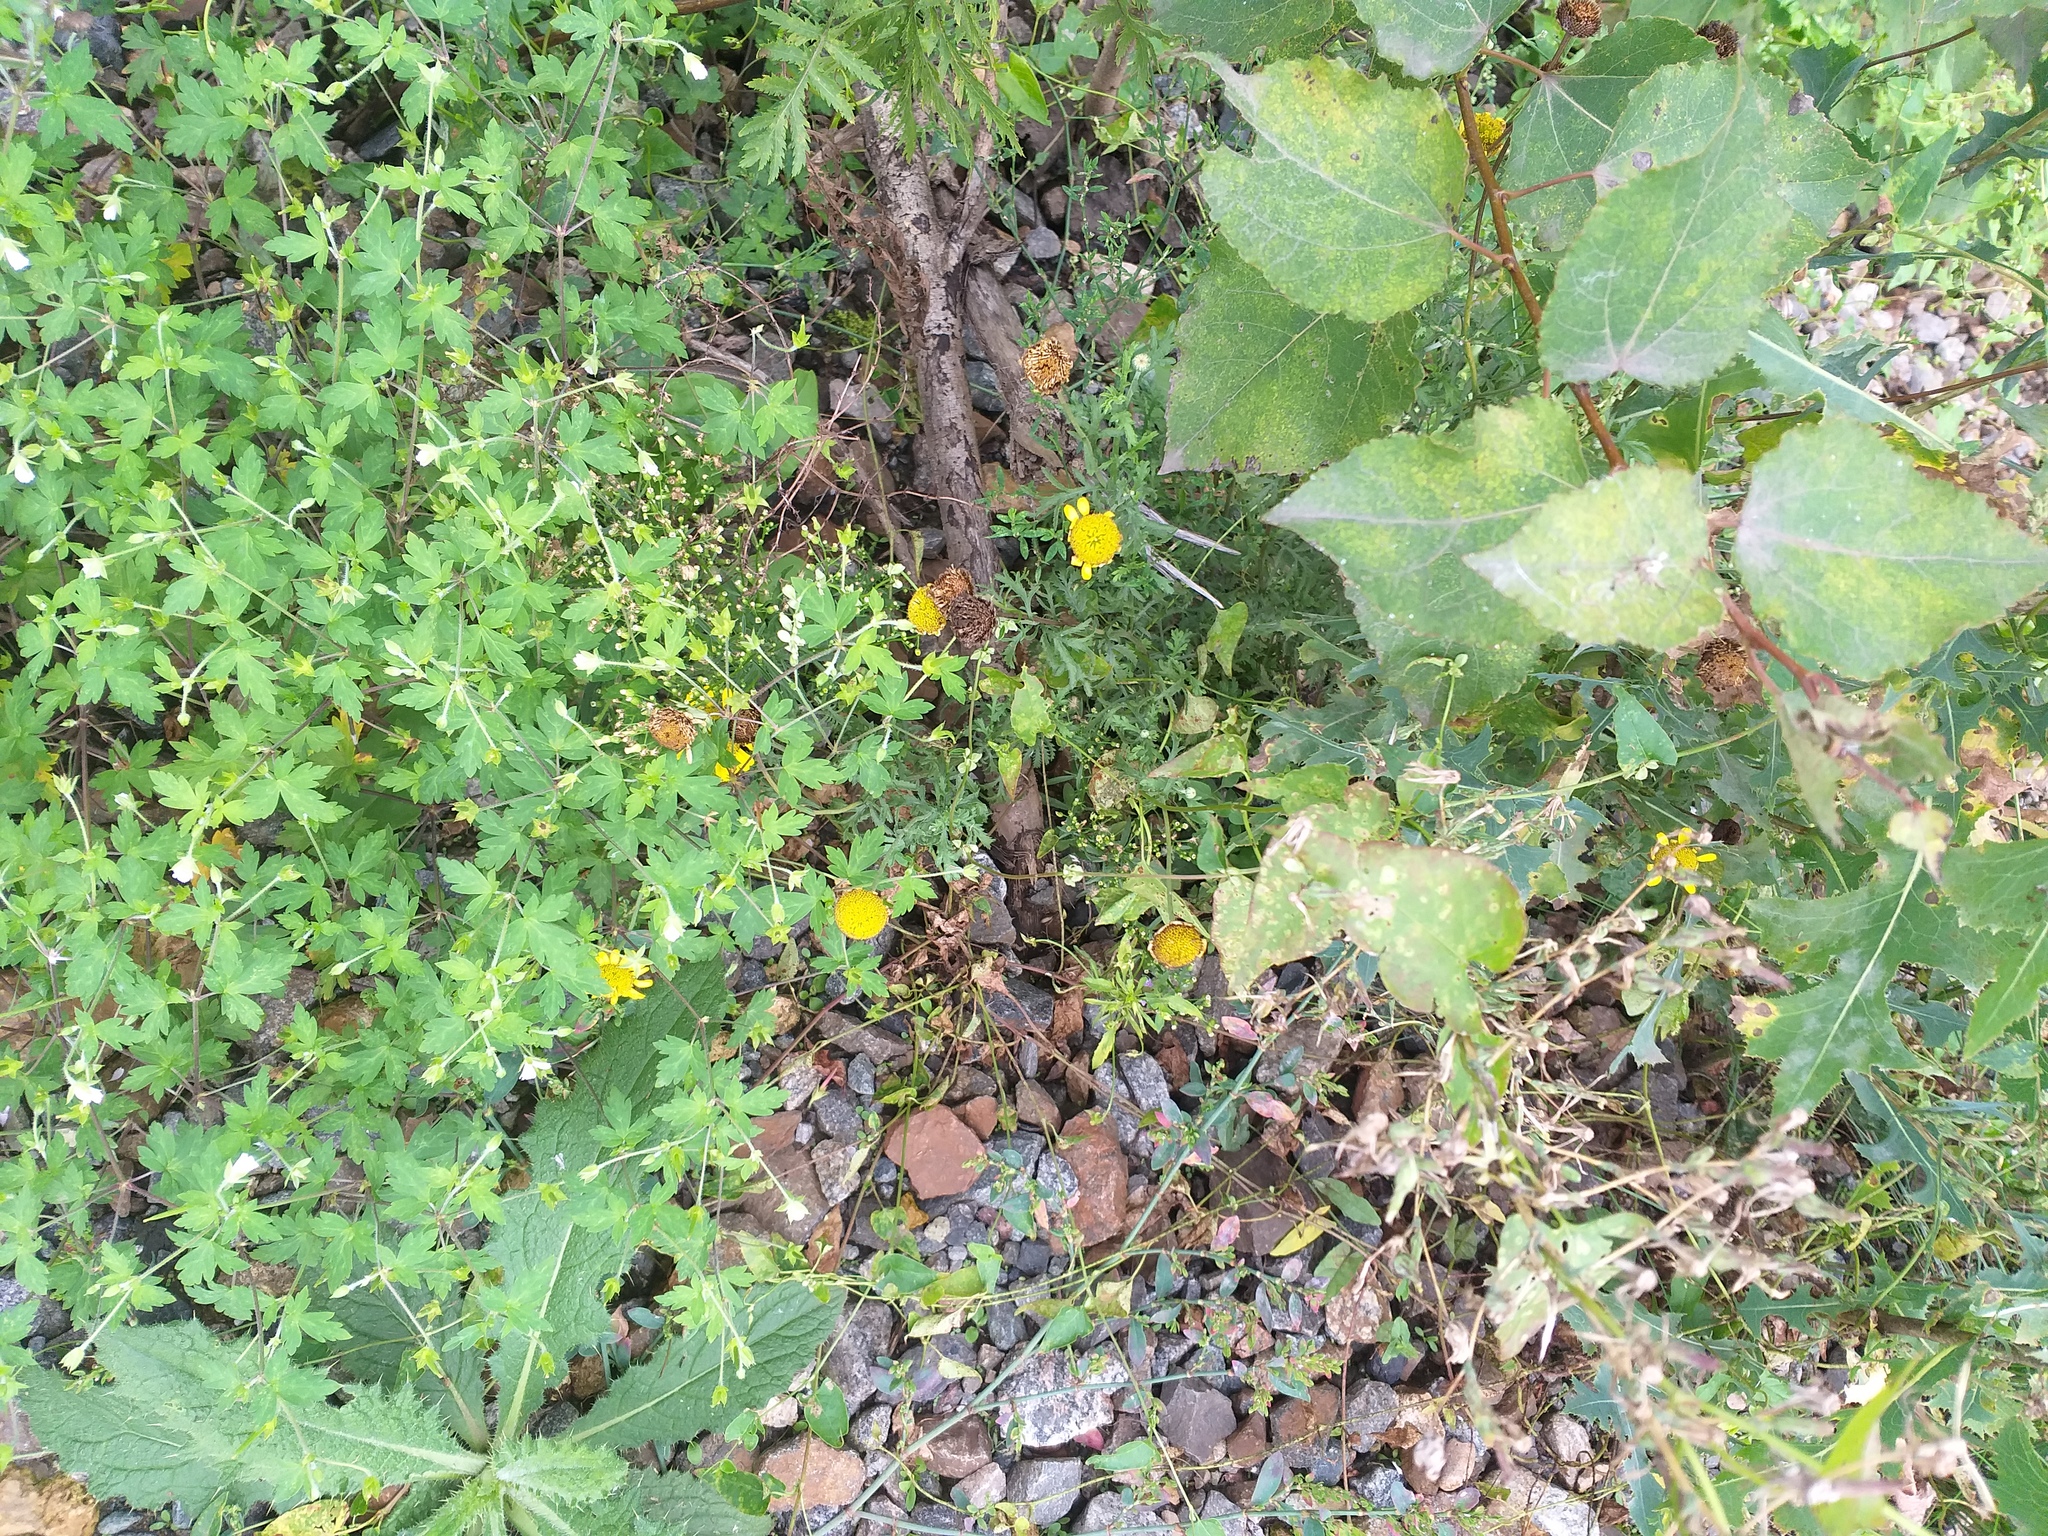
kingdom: Plantae
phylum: Tracheophyta
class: Magnoliopsida
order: Asterales
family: Asteraceae
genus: Cota
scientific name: Cota tinctoria
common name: Golden chamomile
